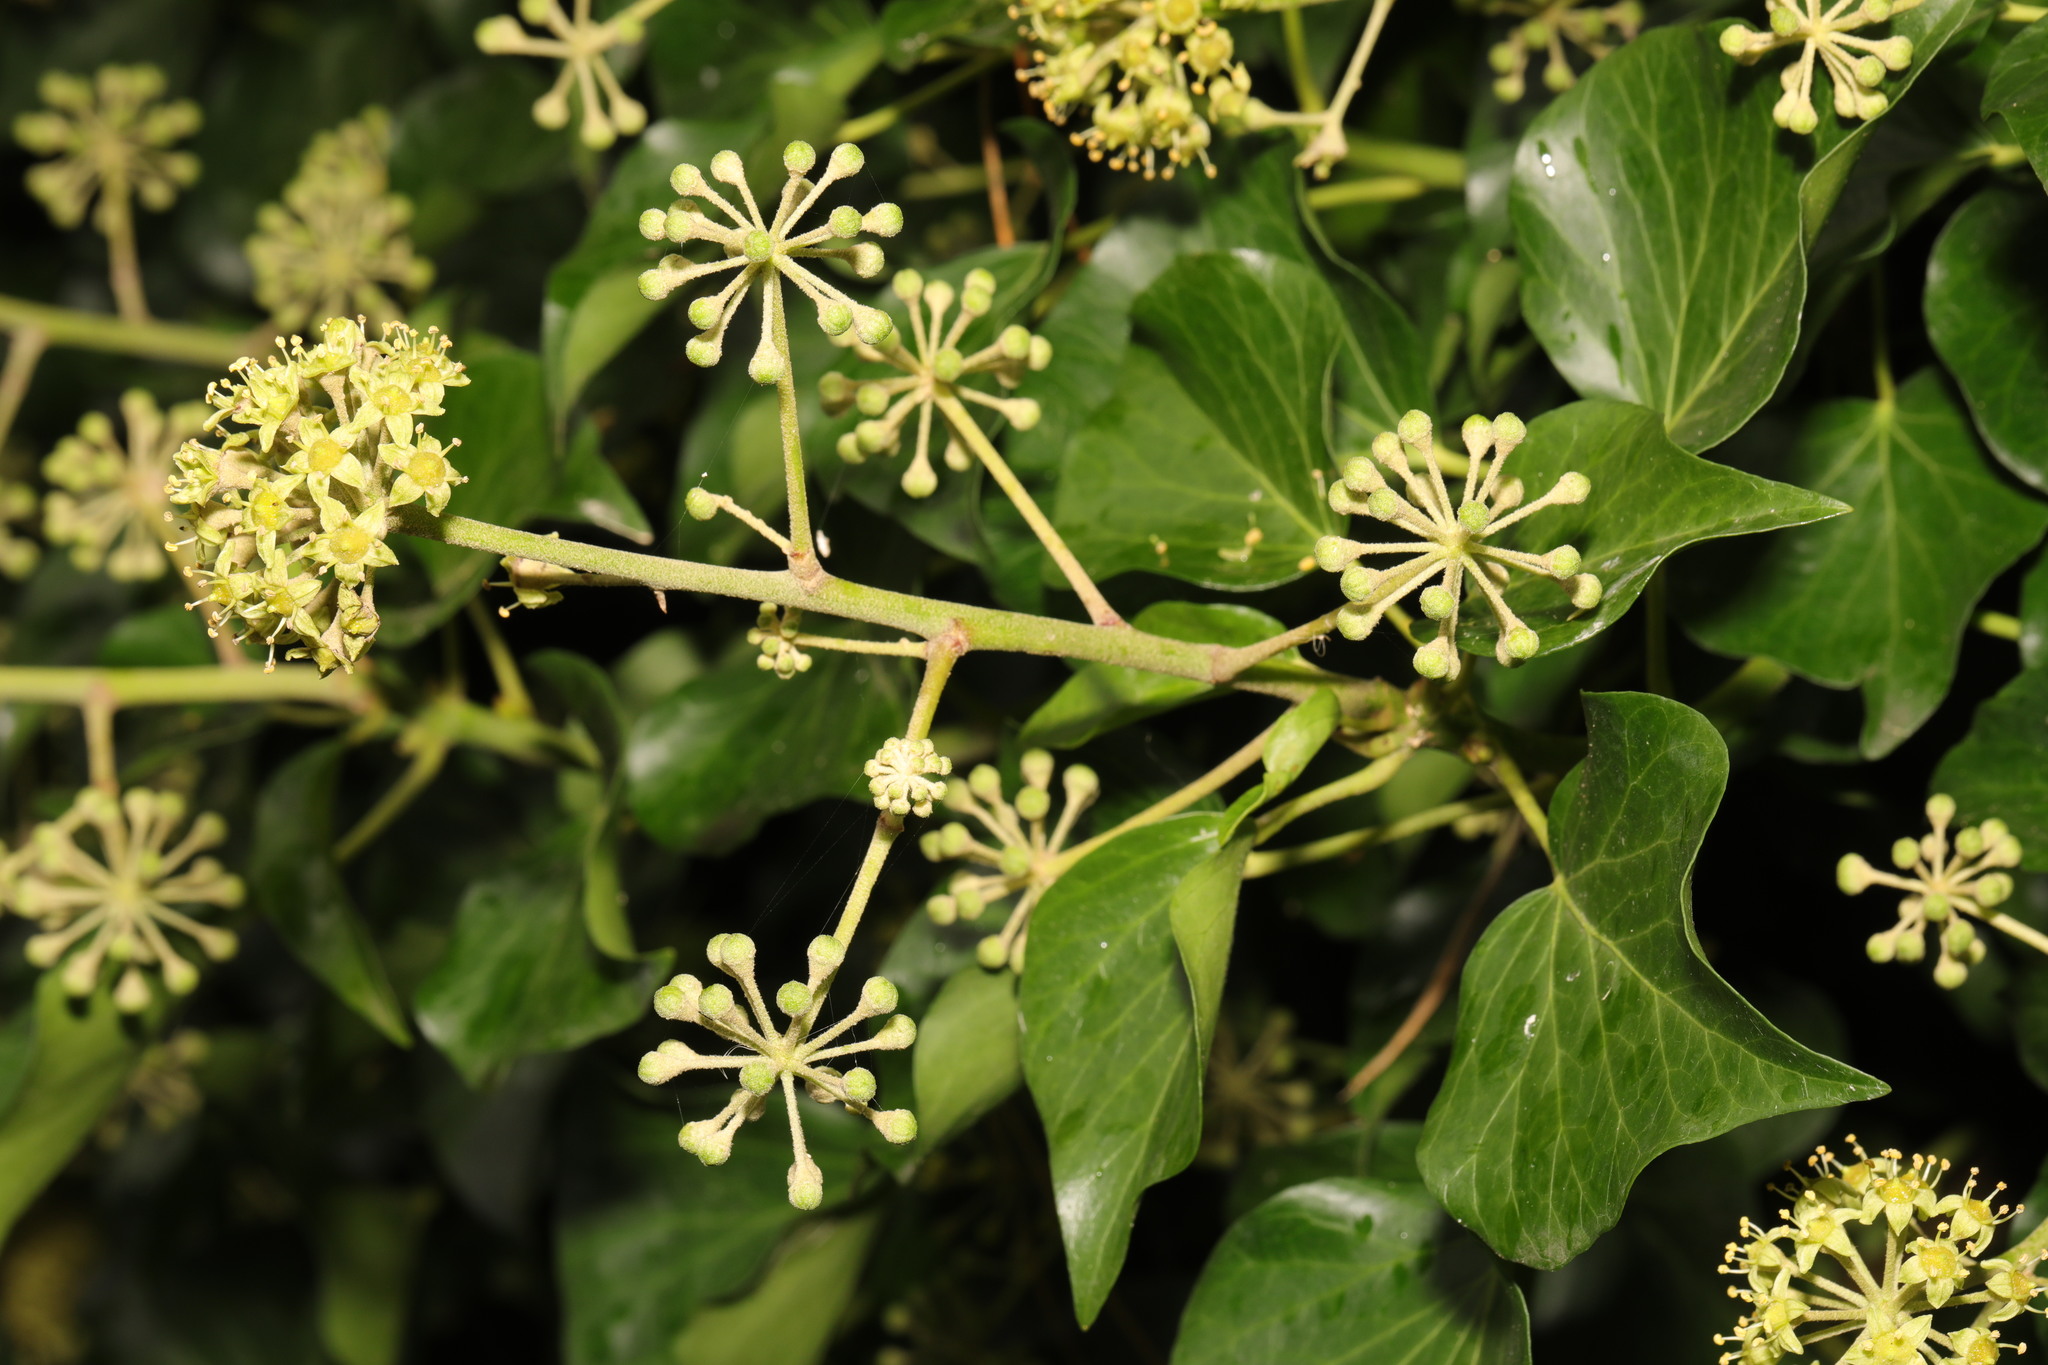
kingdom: Plantae
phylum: Tracheophyta
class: Magnoliopsida
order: Apiales
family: Araliaceae
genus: Hedera
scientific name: Hedera helix
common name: Ivy
